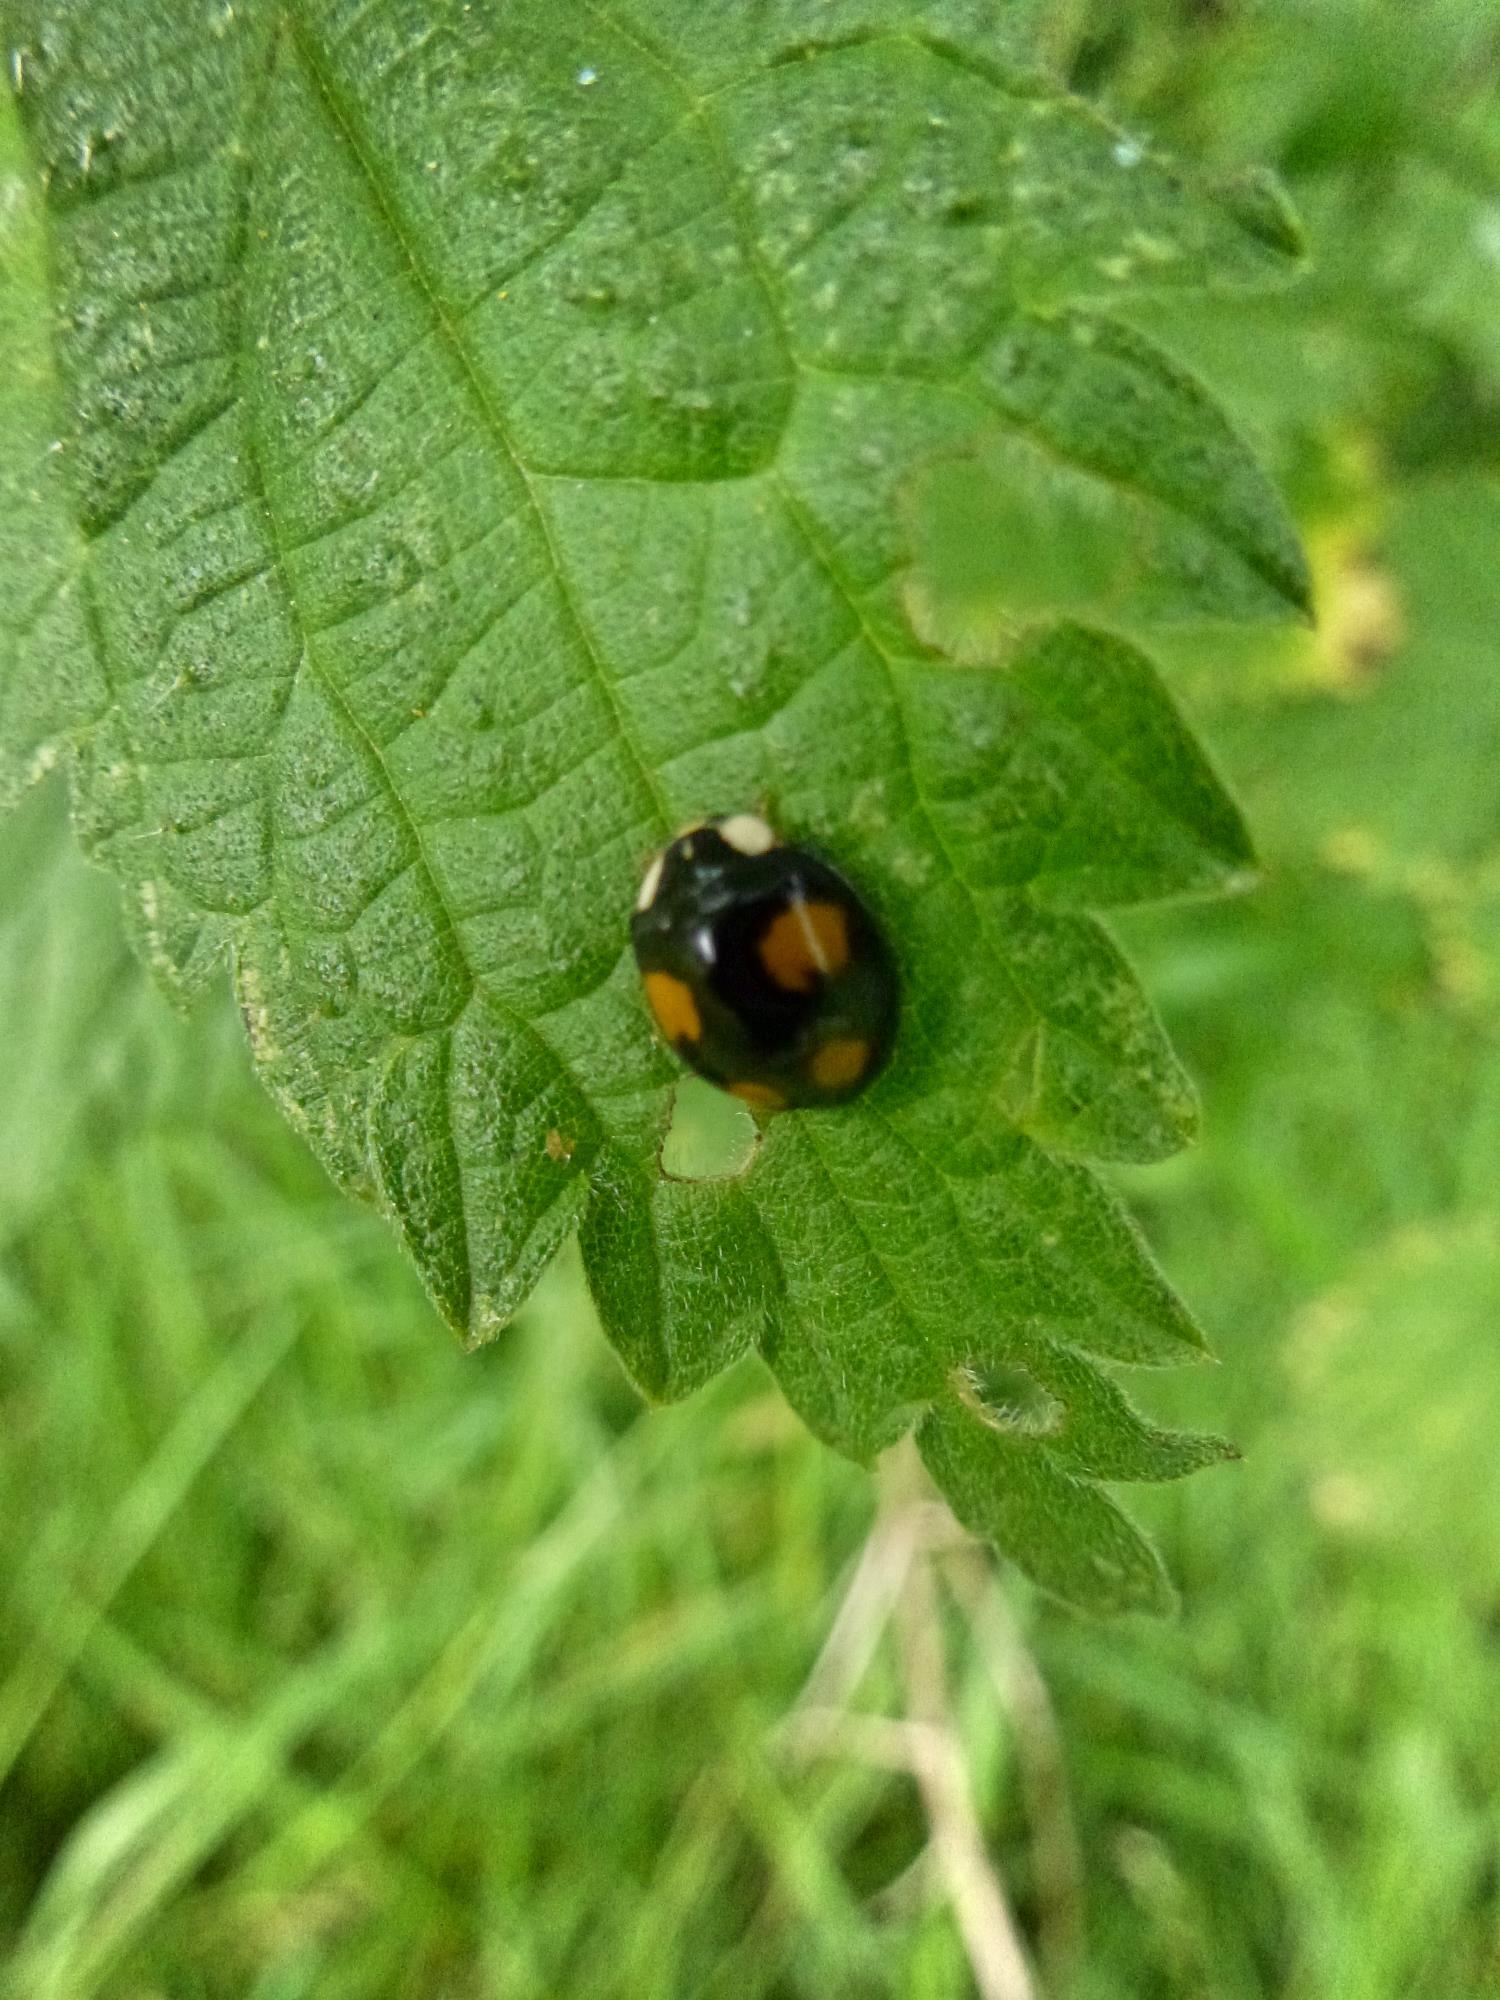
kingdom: Animalia
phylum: Arthropoda
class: Insecta
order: Coleoptera
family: Coccinellidae
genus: Harmonia
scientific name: Harmonia axyridis
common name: Harlequin ladybird
